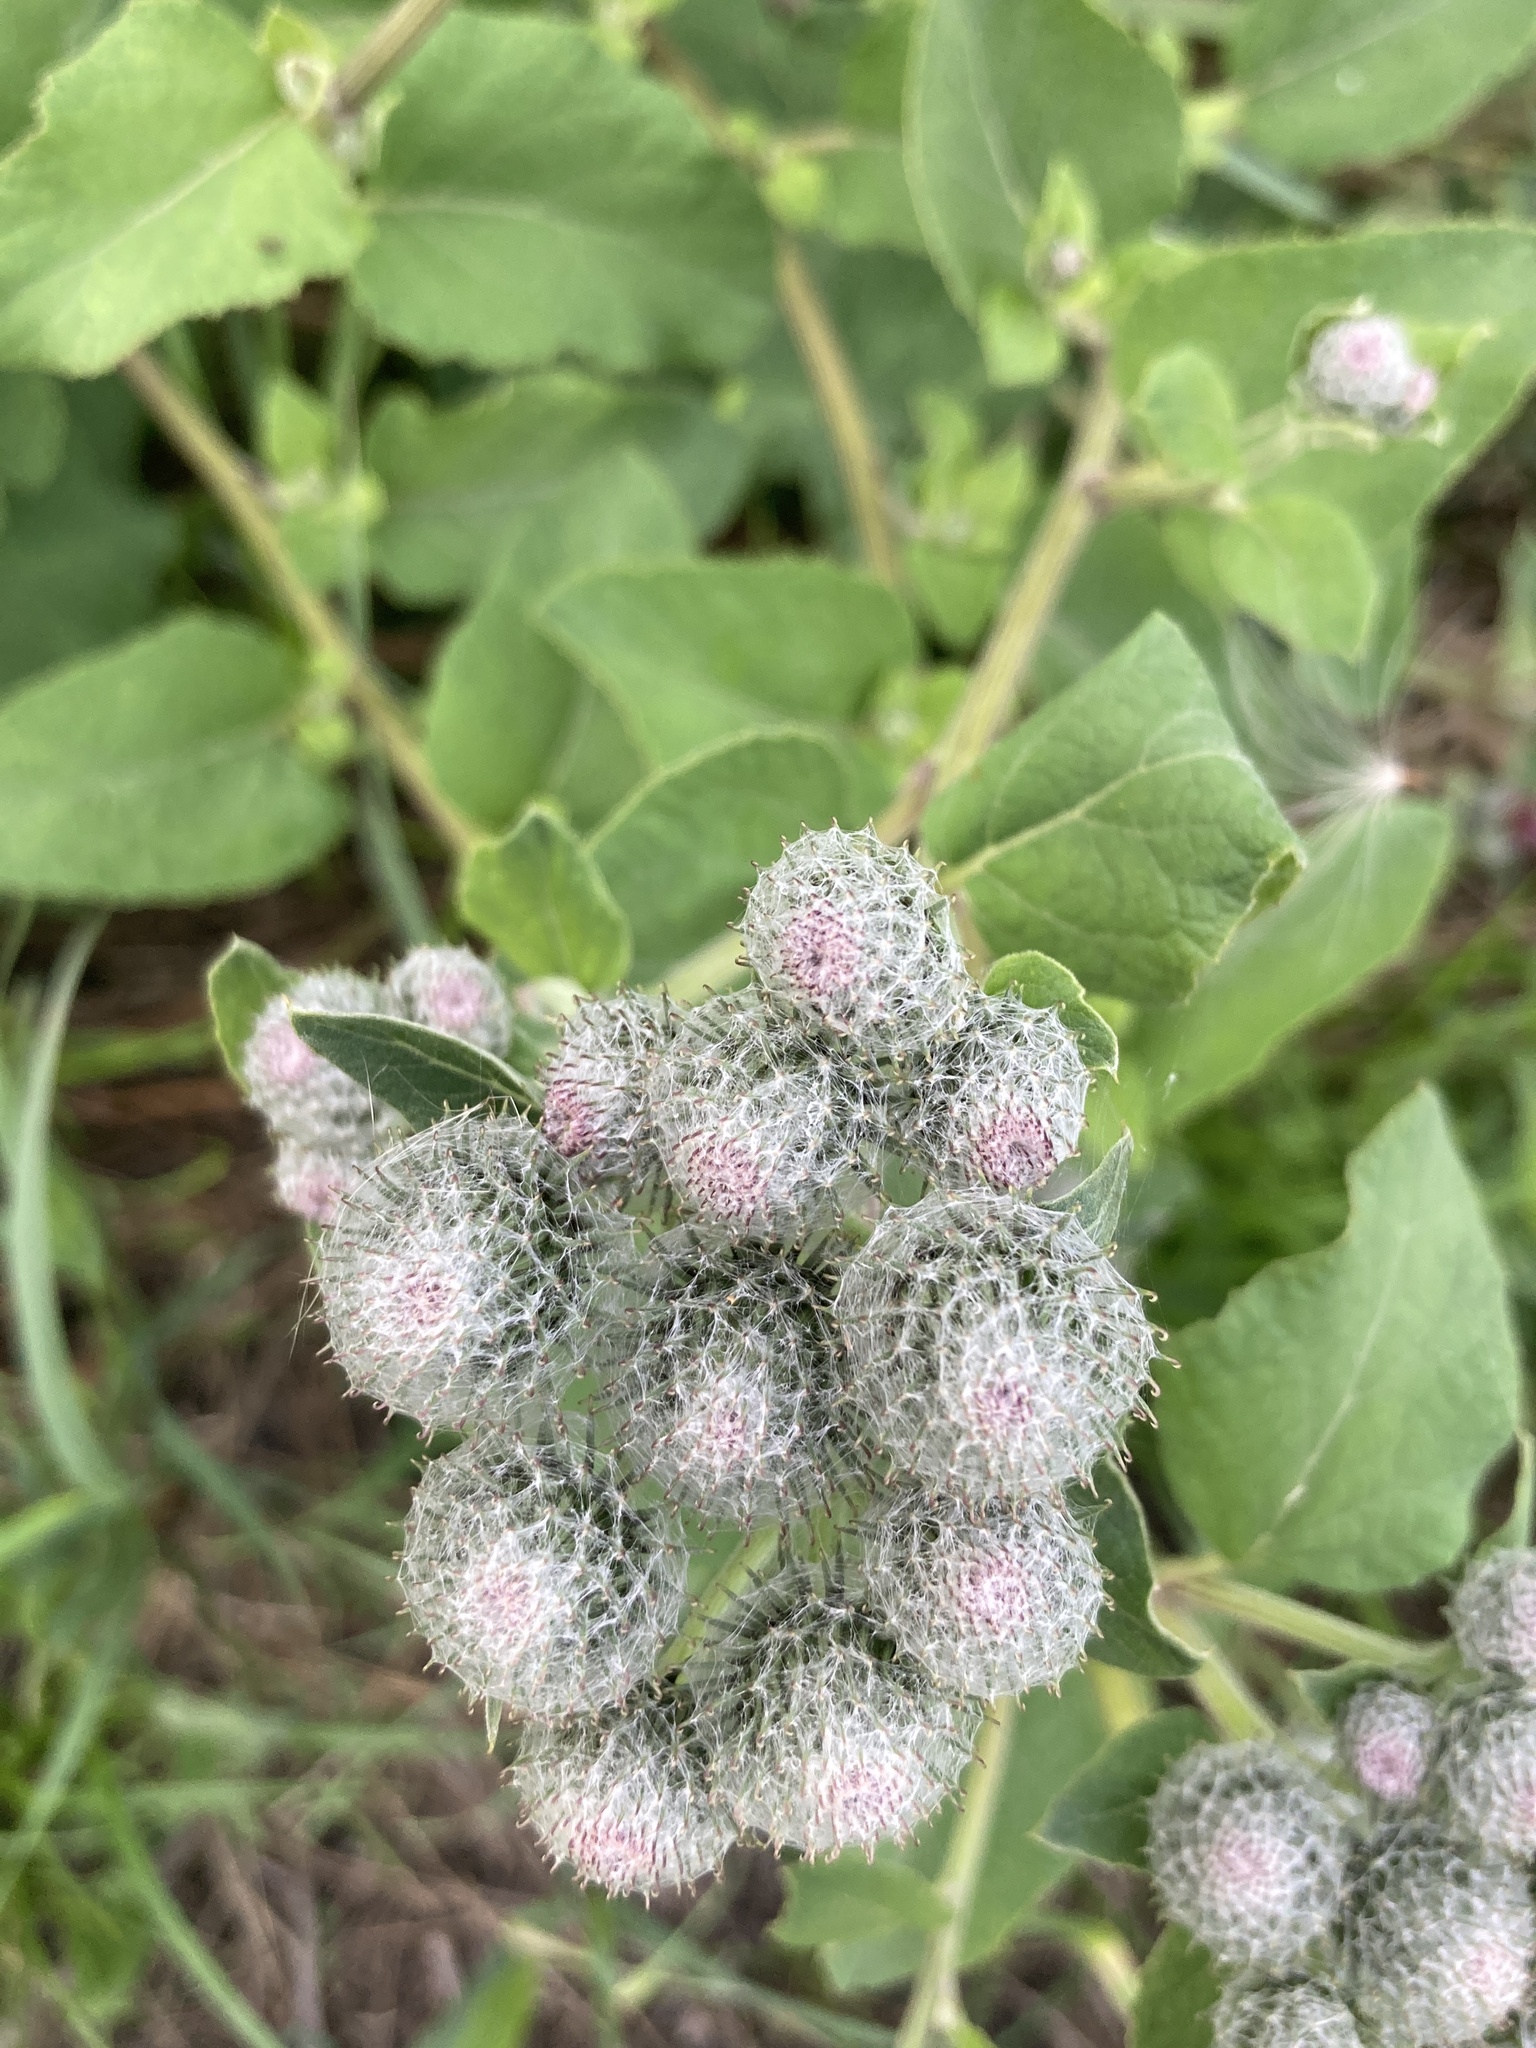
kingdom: Plantae
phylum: Tracheophyta
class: Magnoliopsida
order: Asterales
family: Asteraceae
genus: Arctium
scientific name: Arctium tomentosum
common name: Woolly burdock
